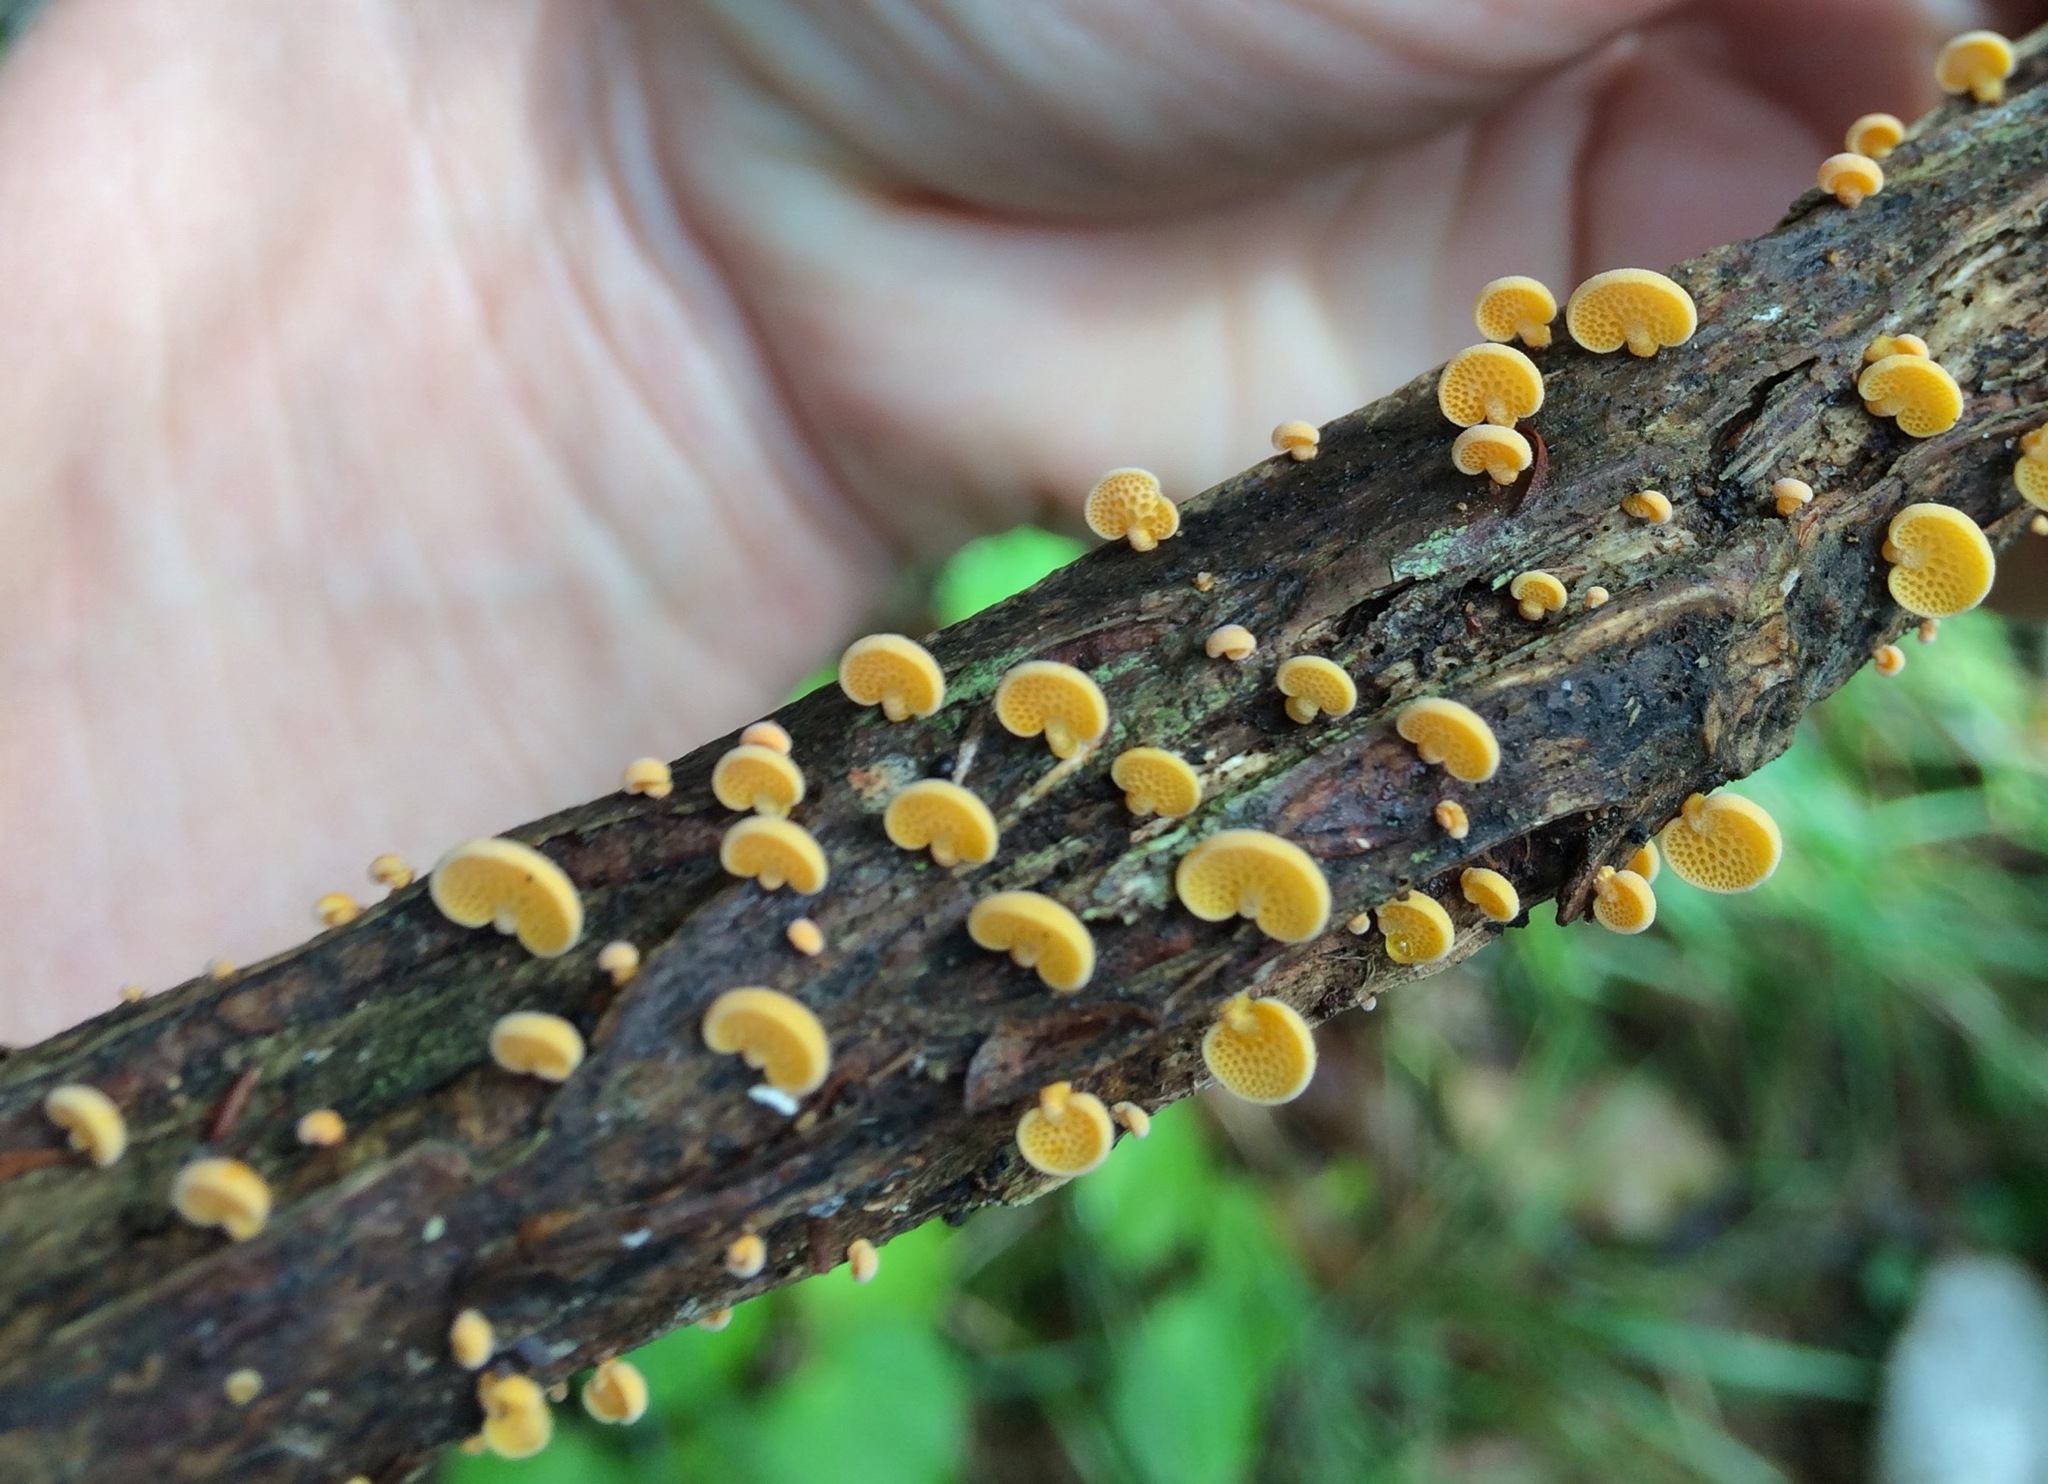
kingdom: Fungi
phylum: Basidiomycota
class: Agaricomycetes
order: Agaricales
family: Mycenaceae
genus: Favolaschia
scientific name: Favolaschia claudopus
